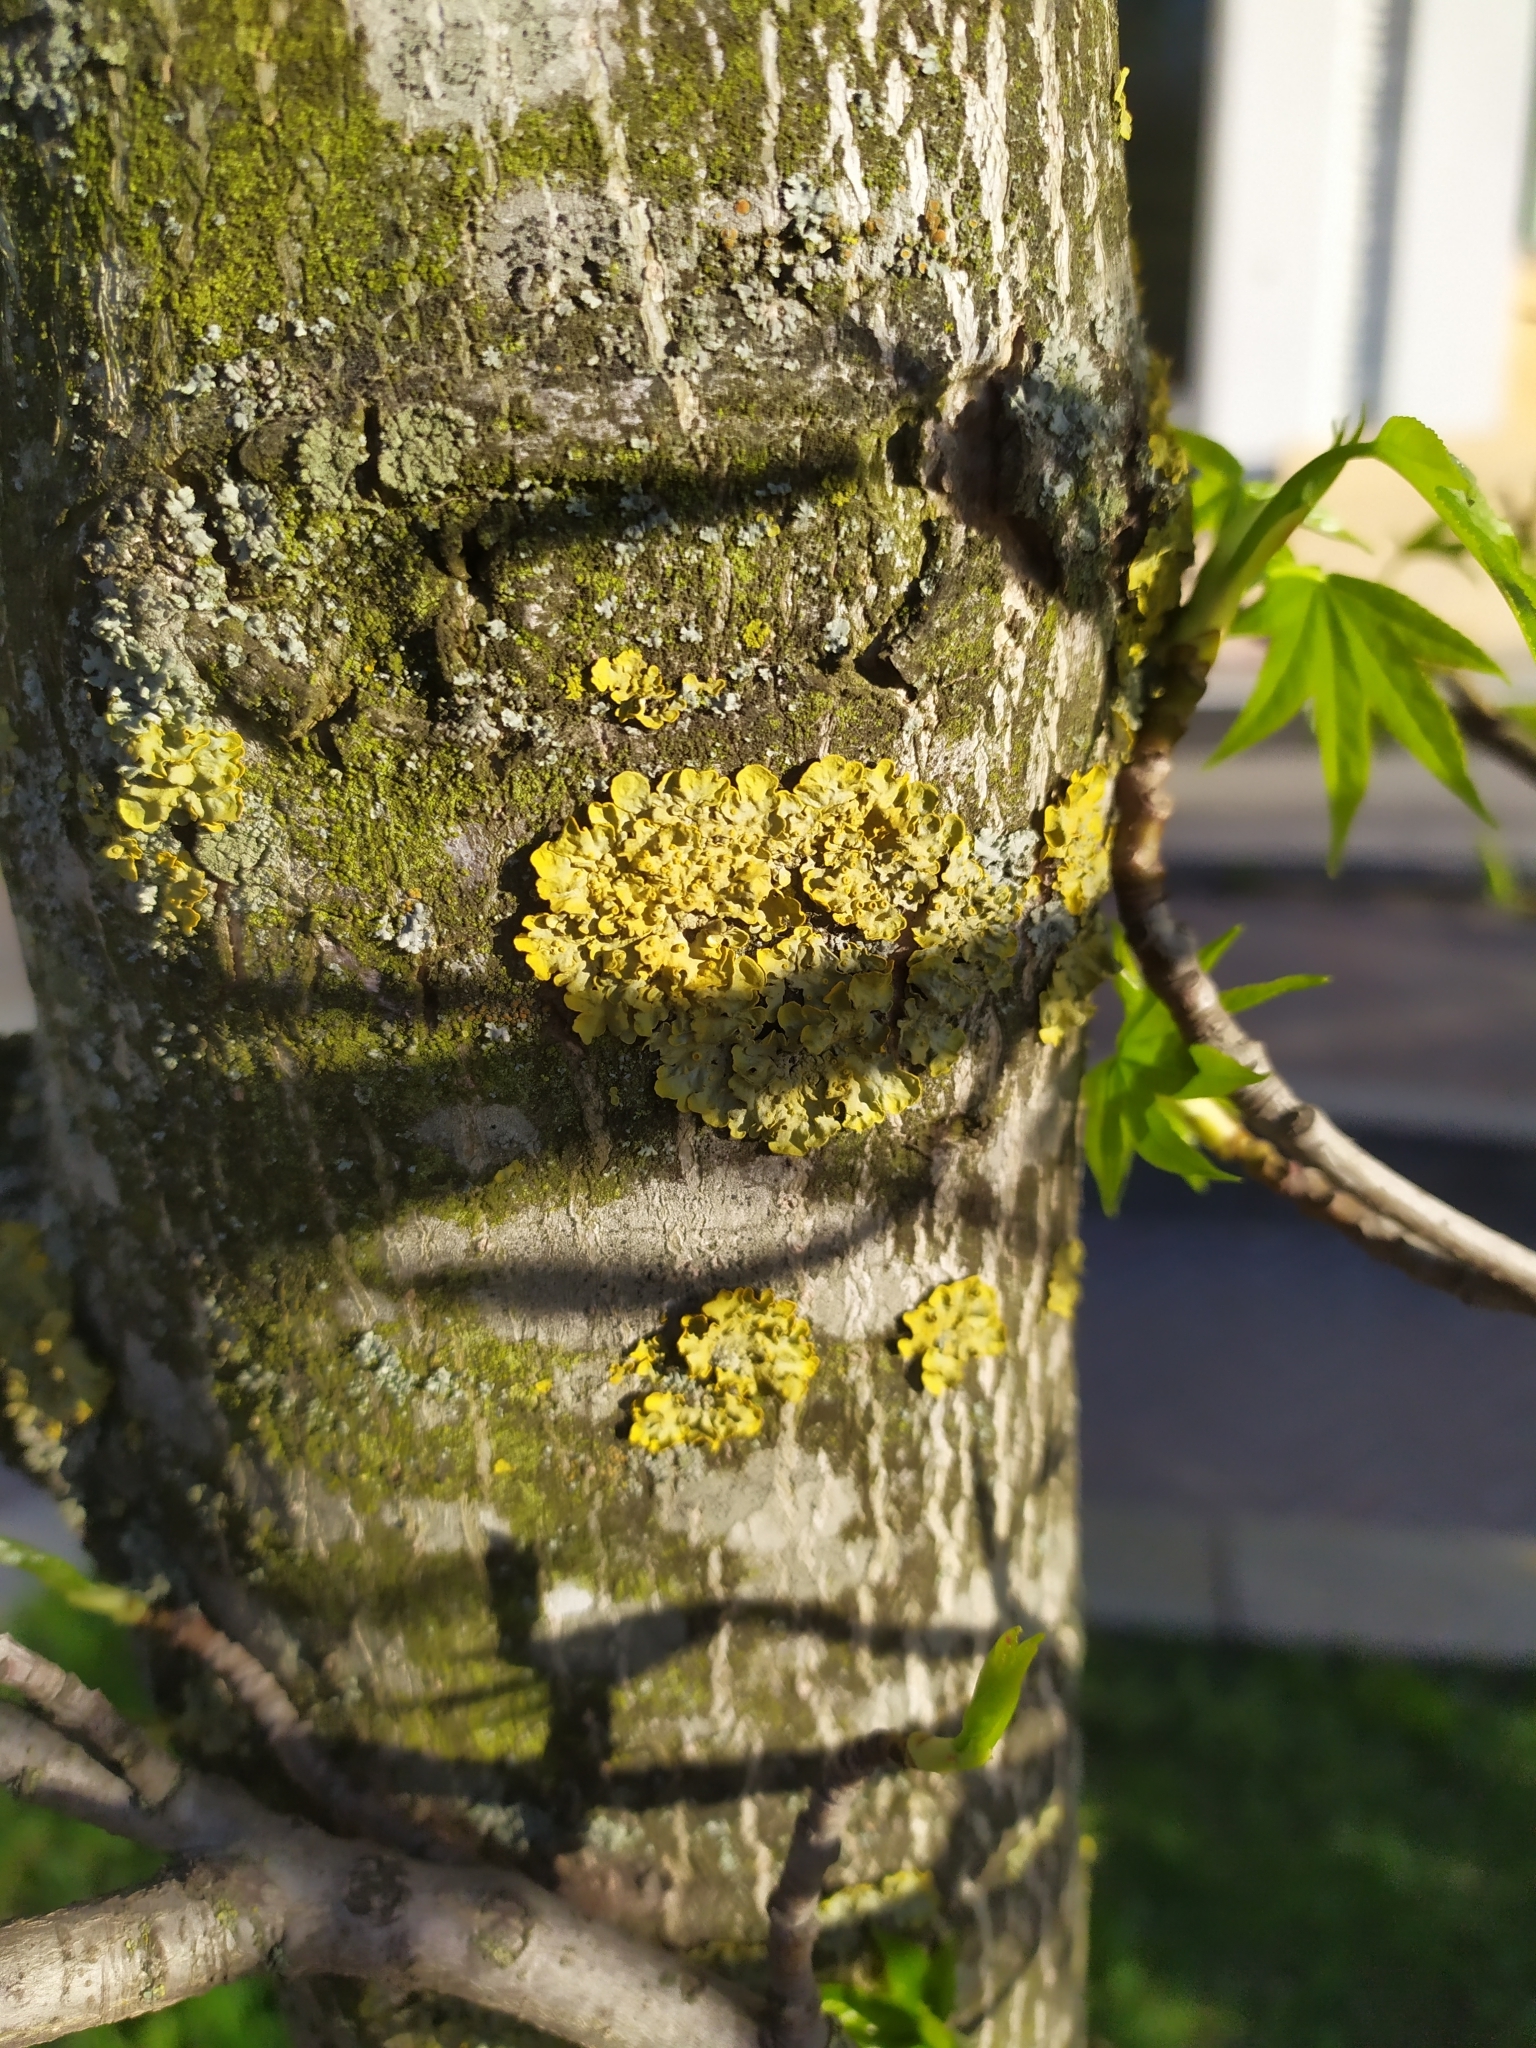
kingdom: Fungi
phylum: Ascomycota
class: Lecanoromycetes
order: Teloschistales
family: Teloschistaceae
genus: Xanthoria
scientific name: Xanthoria parietina
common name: Common orange lichen
